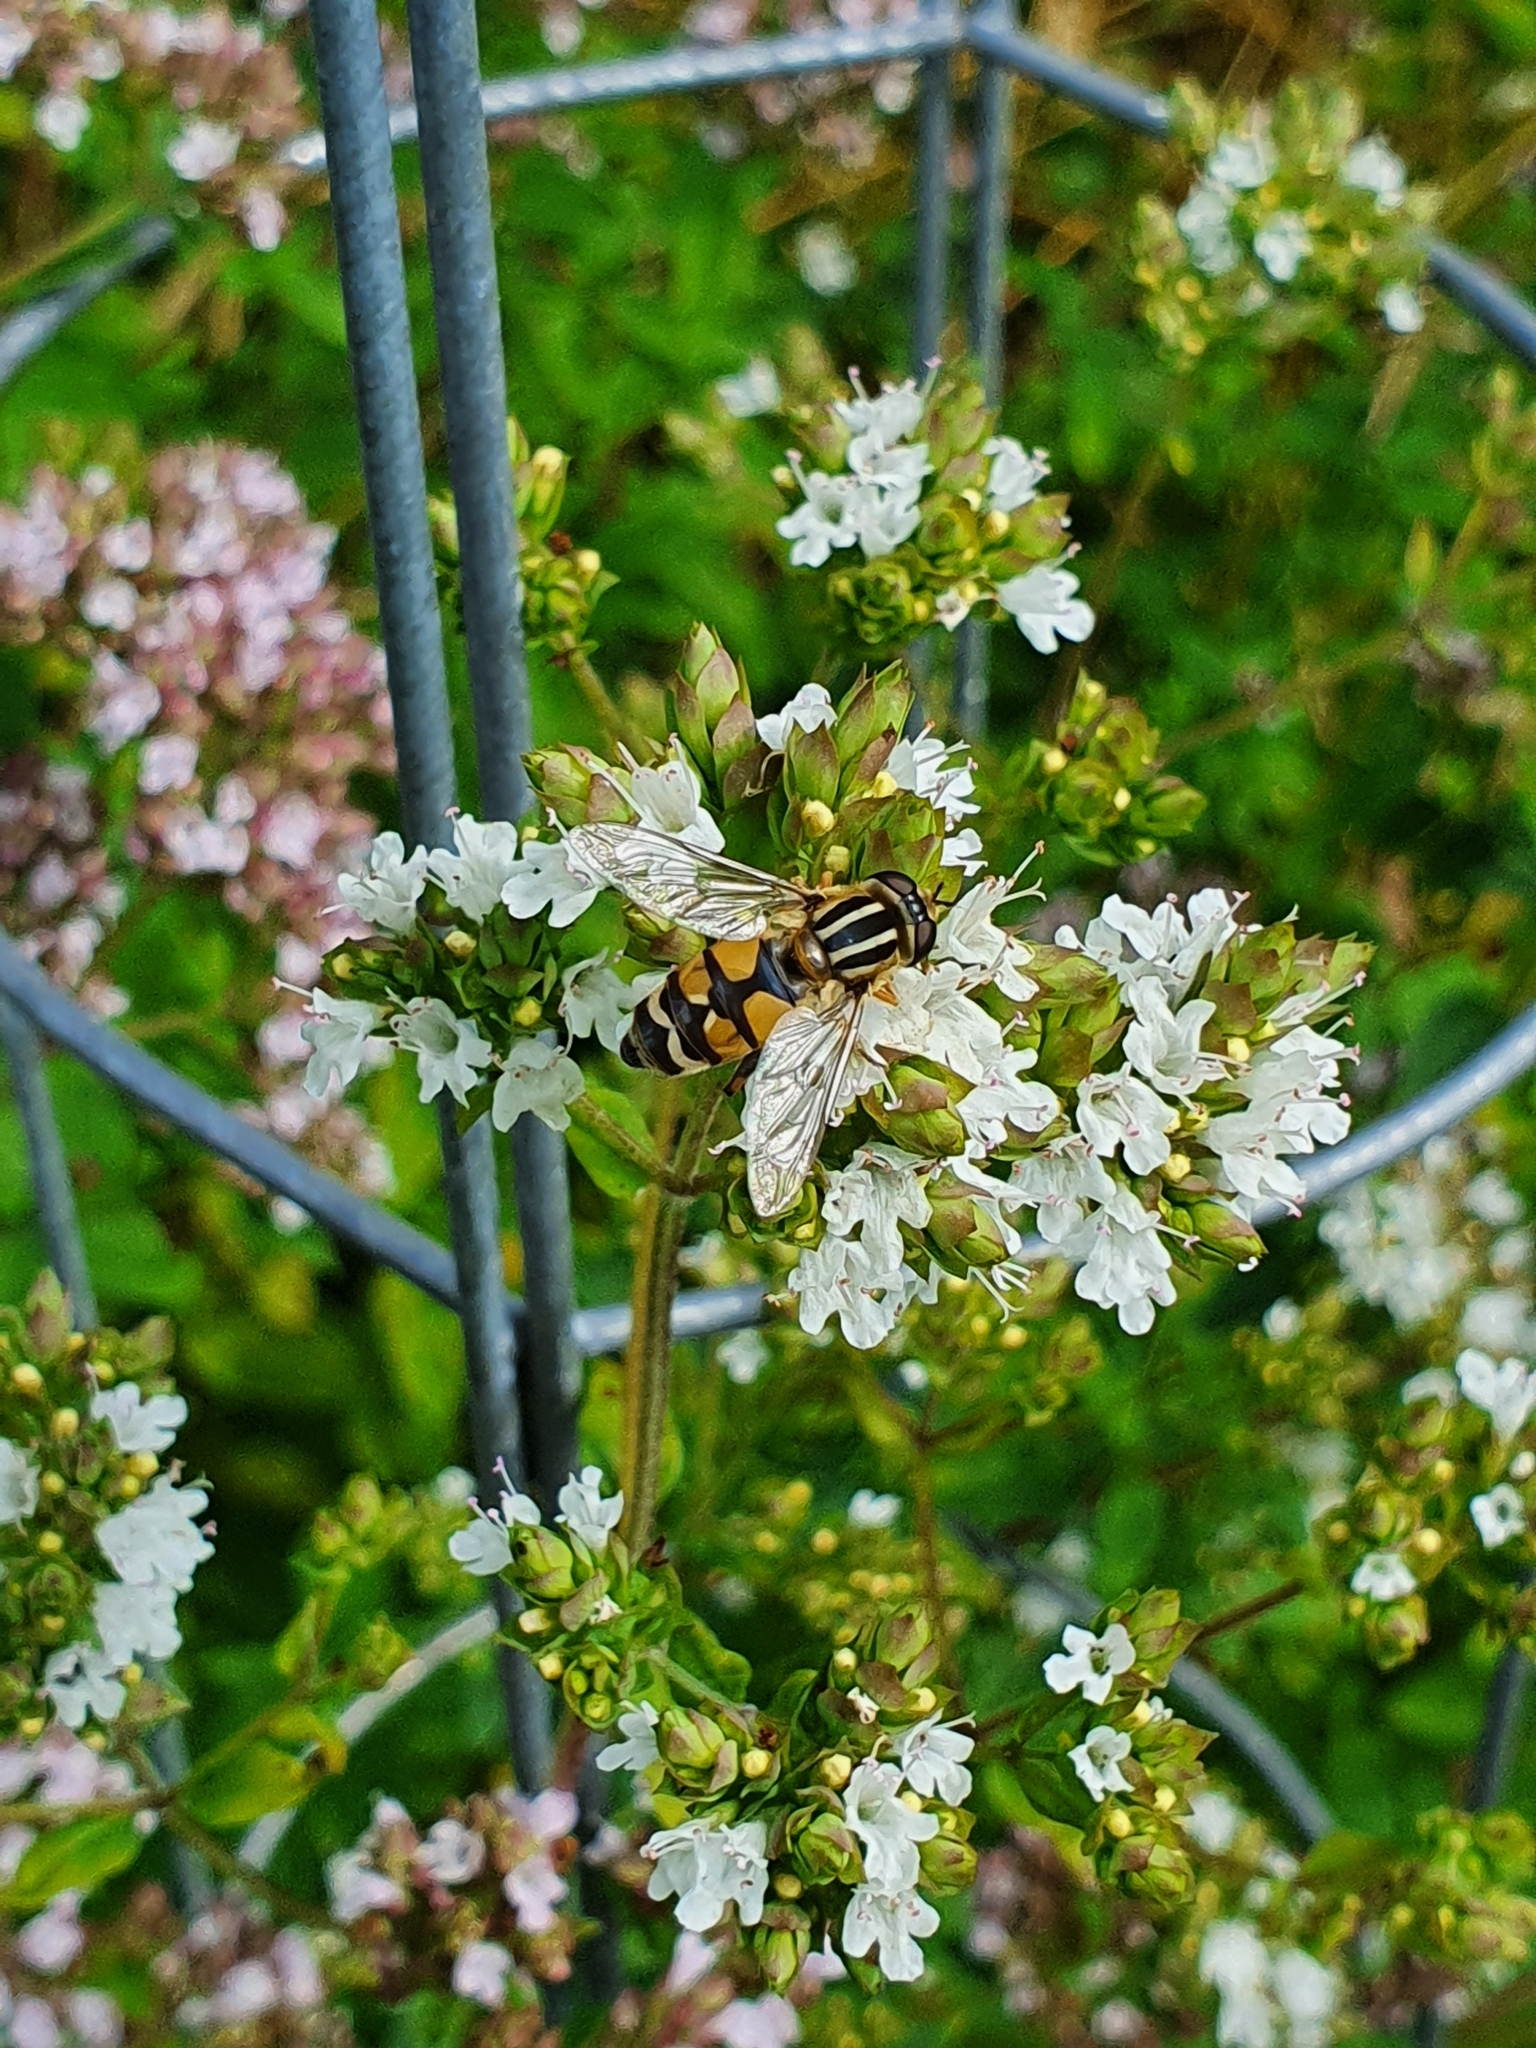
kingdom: Animalia
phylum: Arthropoda
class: Insecta
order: Diptera
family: Syrphidae
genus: Helophilus
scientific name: Helophilus trivittatus
